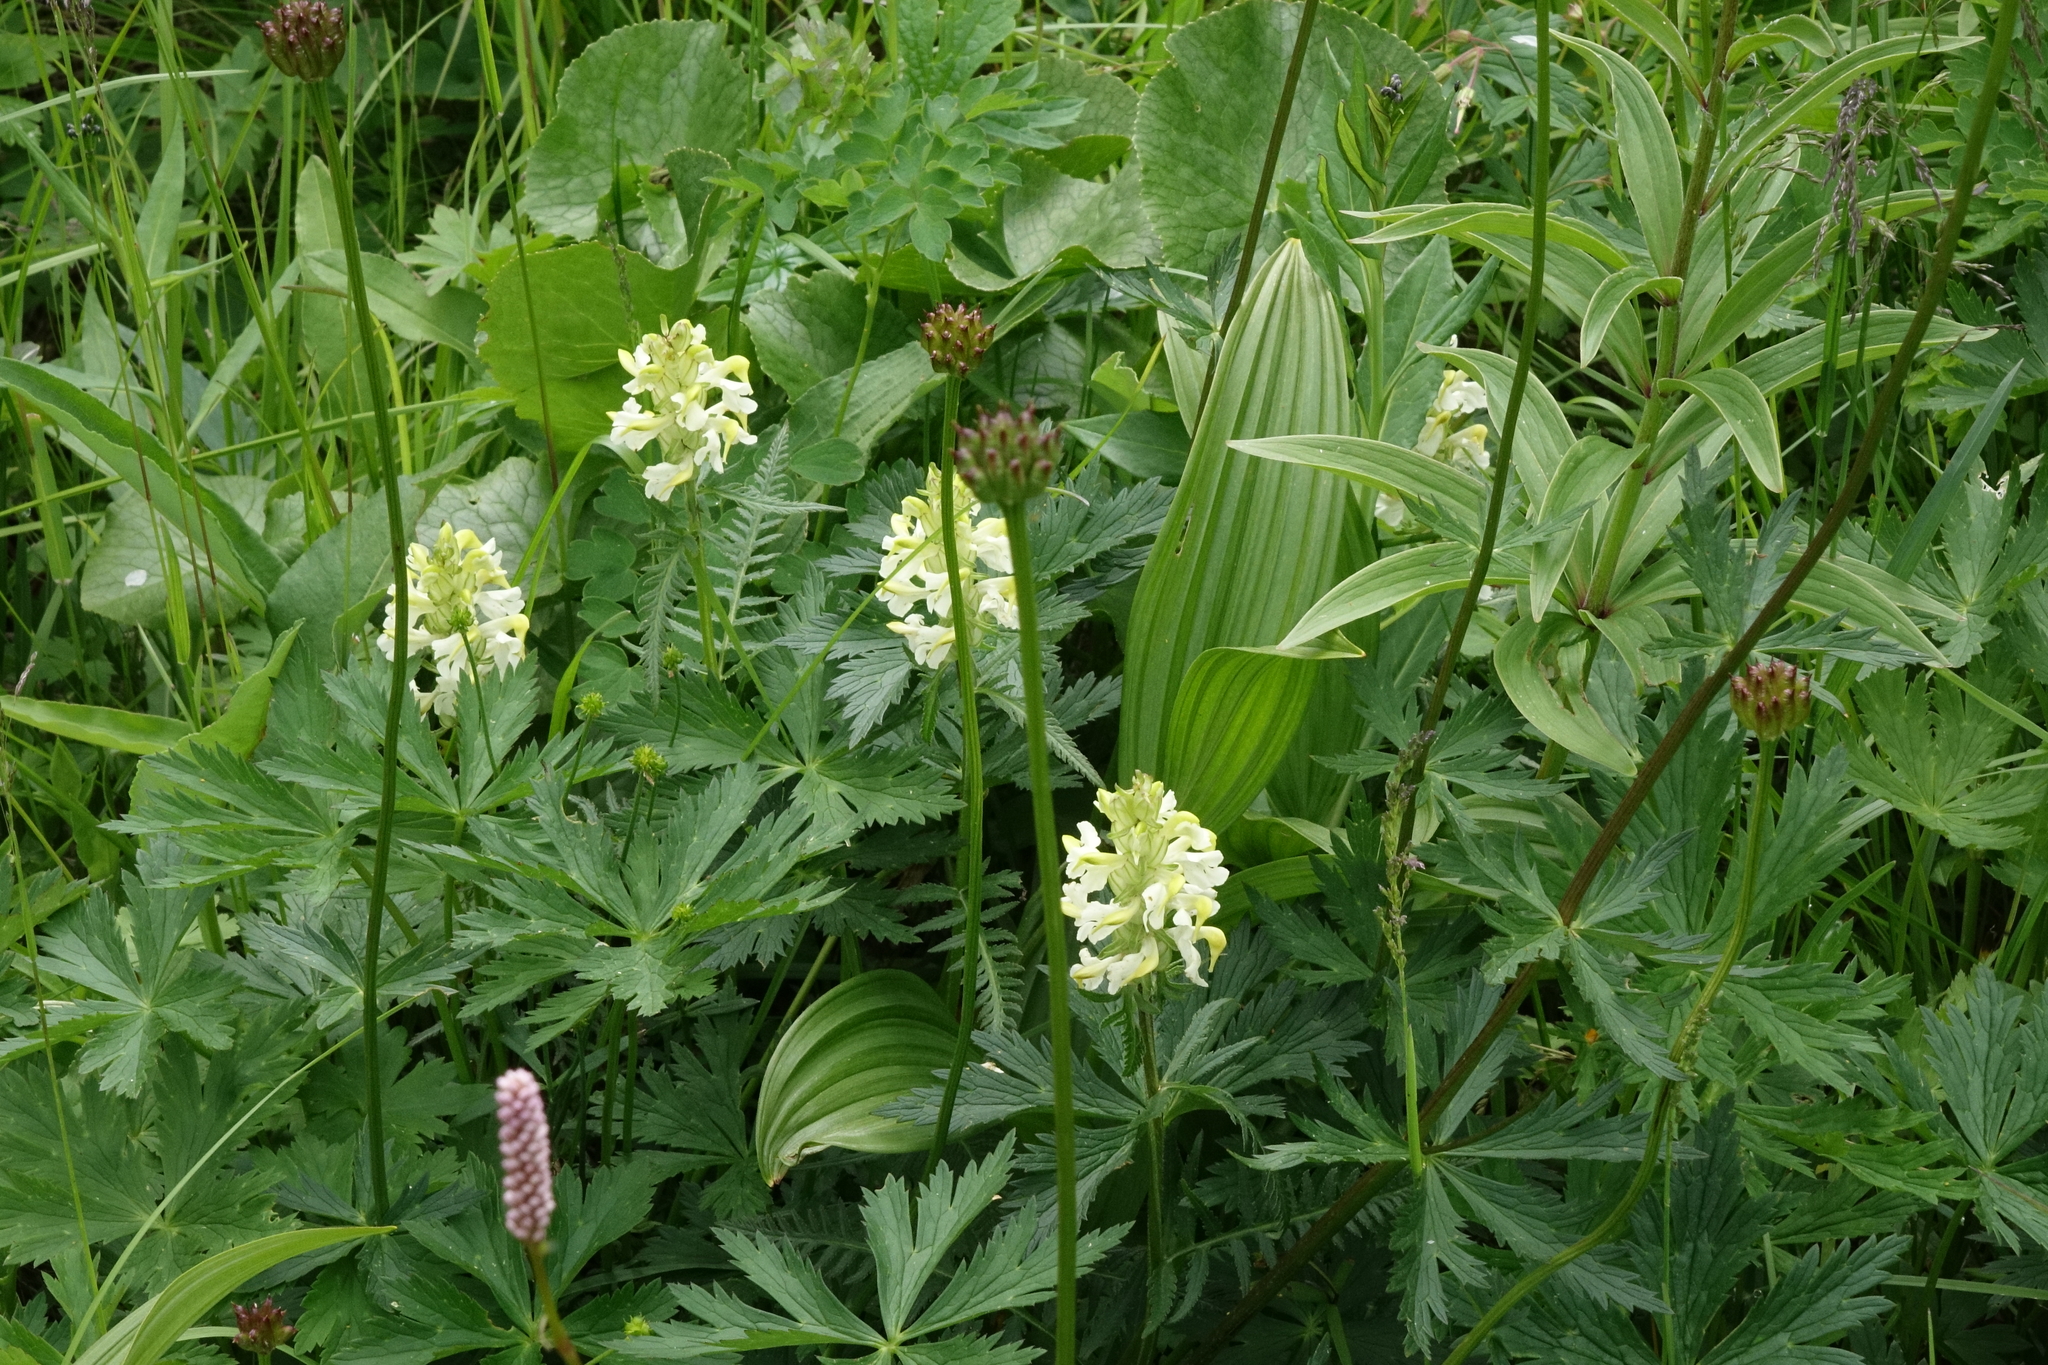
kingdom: Plantae
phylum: Tracheophyta
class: Magnoliopsida
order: Lamiales
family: Orobanchaceae
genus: Pedicularis
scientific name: Pedicularis compacta
